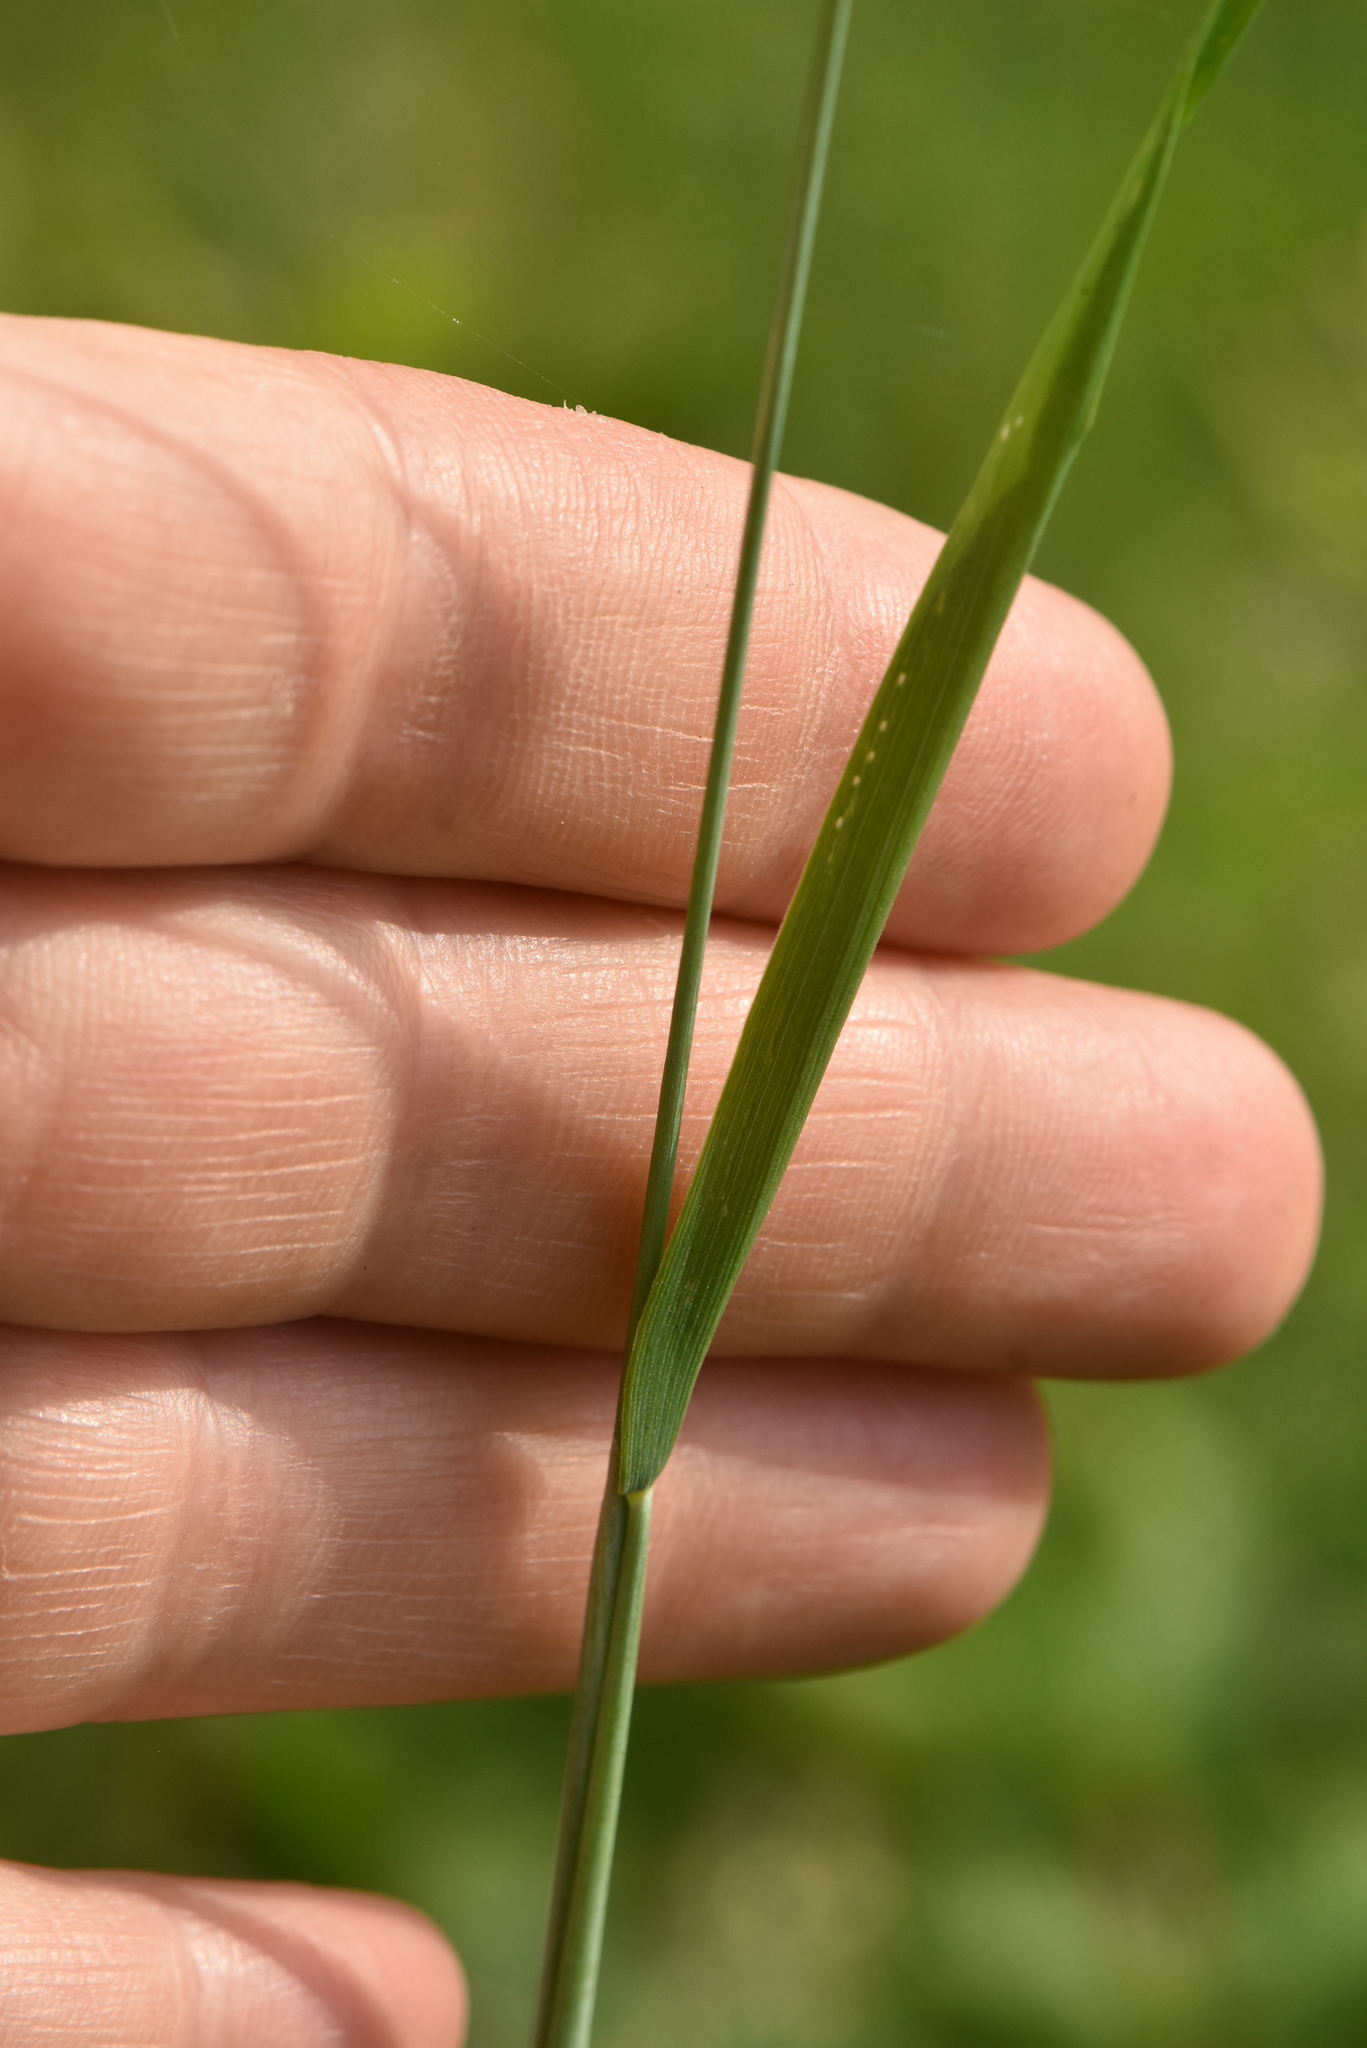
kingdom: Plantae
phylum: Tracheophyta
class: Liliopsida
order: Poales
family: Poaceae
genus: Alopecurus
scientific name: Alopecurus pratensis
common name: Meadow foxtail
